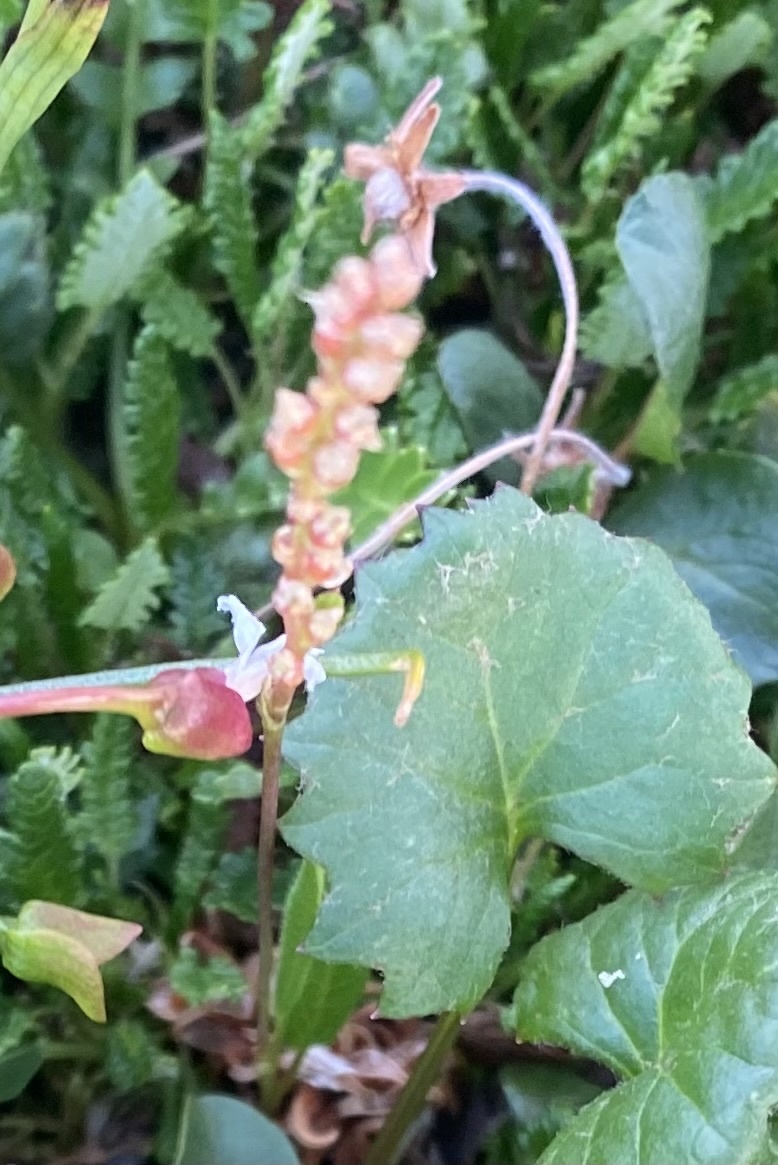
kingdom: Plantae
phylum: Tracheophyta
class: Magnoliopsida
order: Caryophyllales
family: Polygonaceae
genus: Bistorta
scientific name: Bistorta vivipara
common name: Alpine bistort
